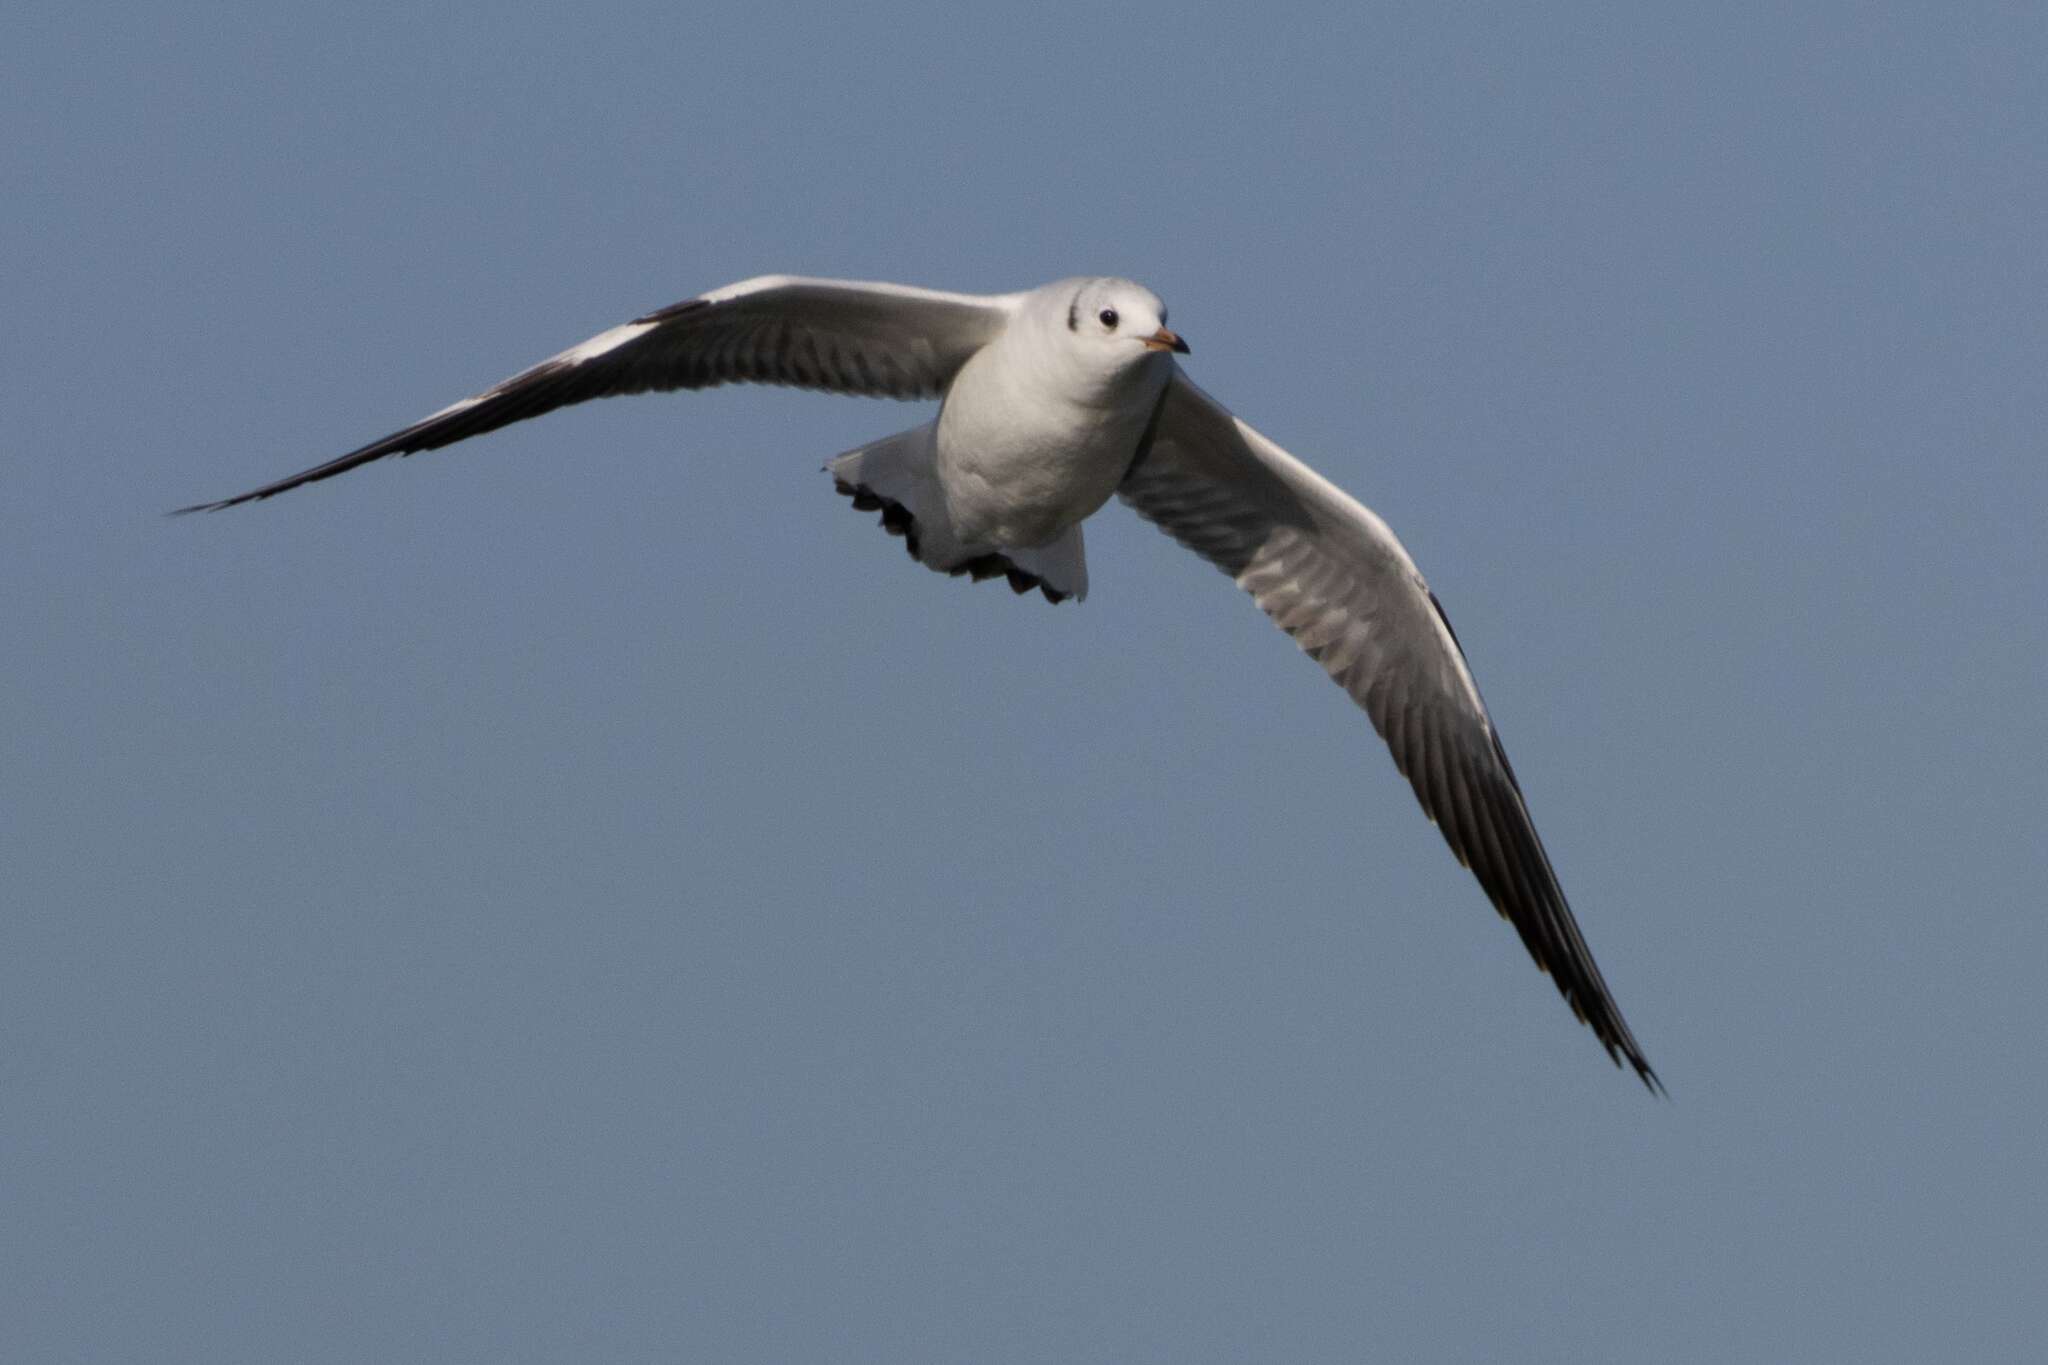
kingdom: Animalia
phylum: Chordata
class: Aves
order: Charadriiformes
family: Laridae
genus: Chroicocephalus
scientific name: Chroicocephalus ridibundus
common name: Black-headed gull
